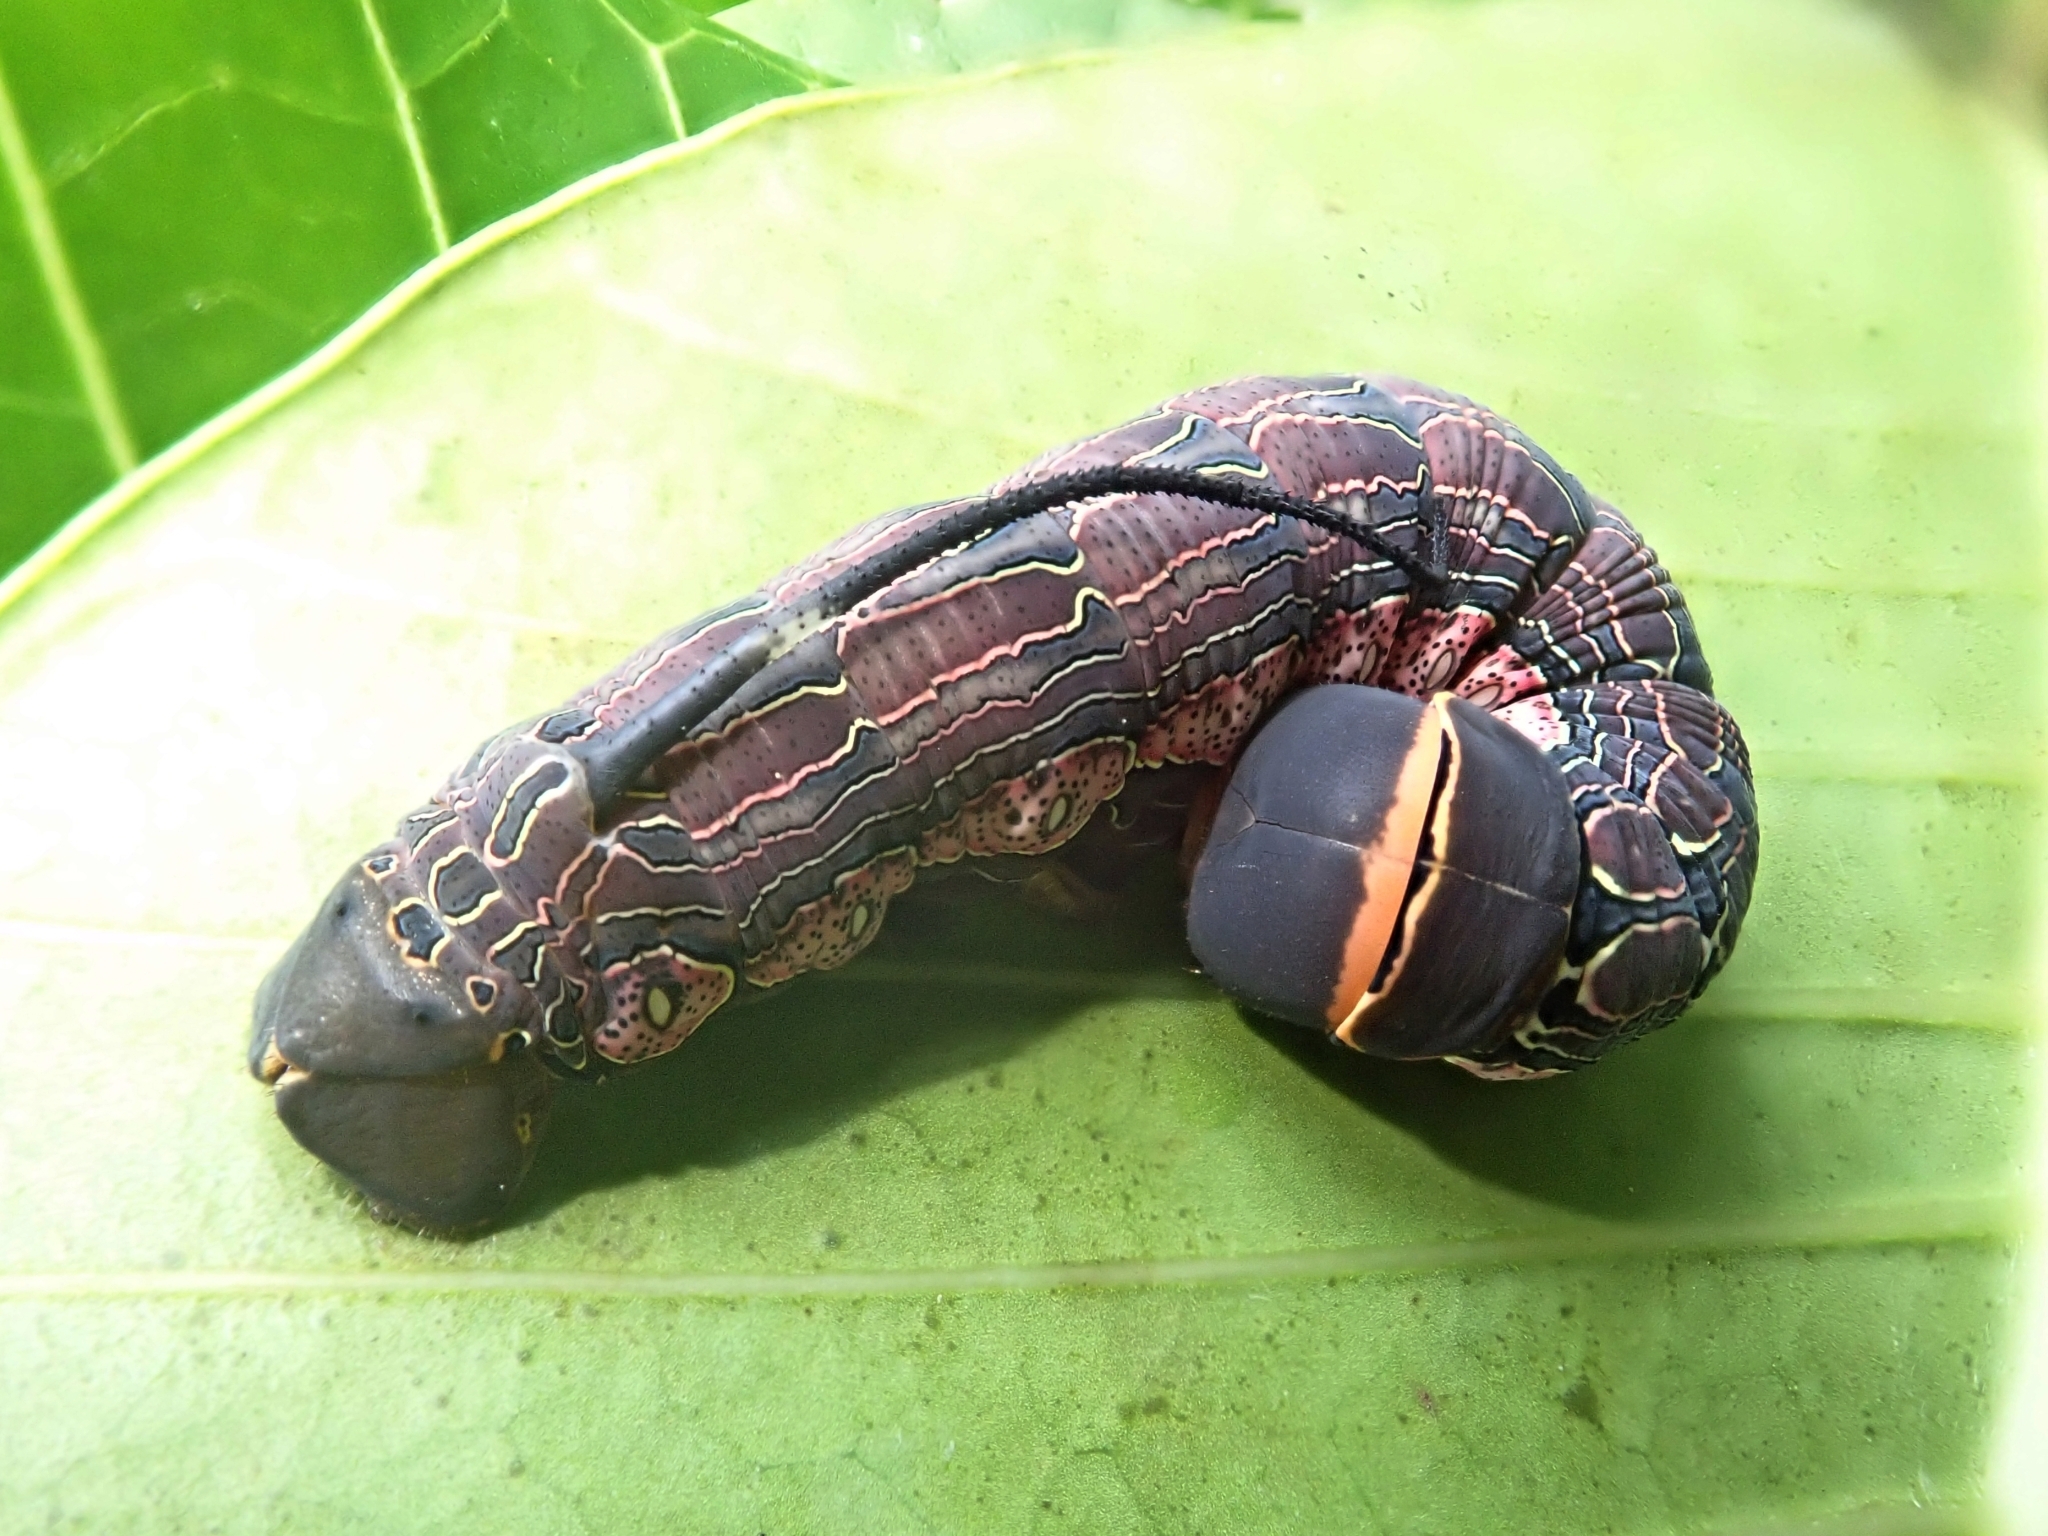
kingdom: Animalia
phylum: Arthropoda
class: Insecta
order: Lepidoptera
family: Sphingidae
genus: Isognathus
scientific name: Isognathus menechus
